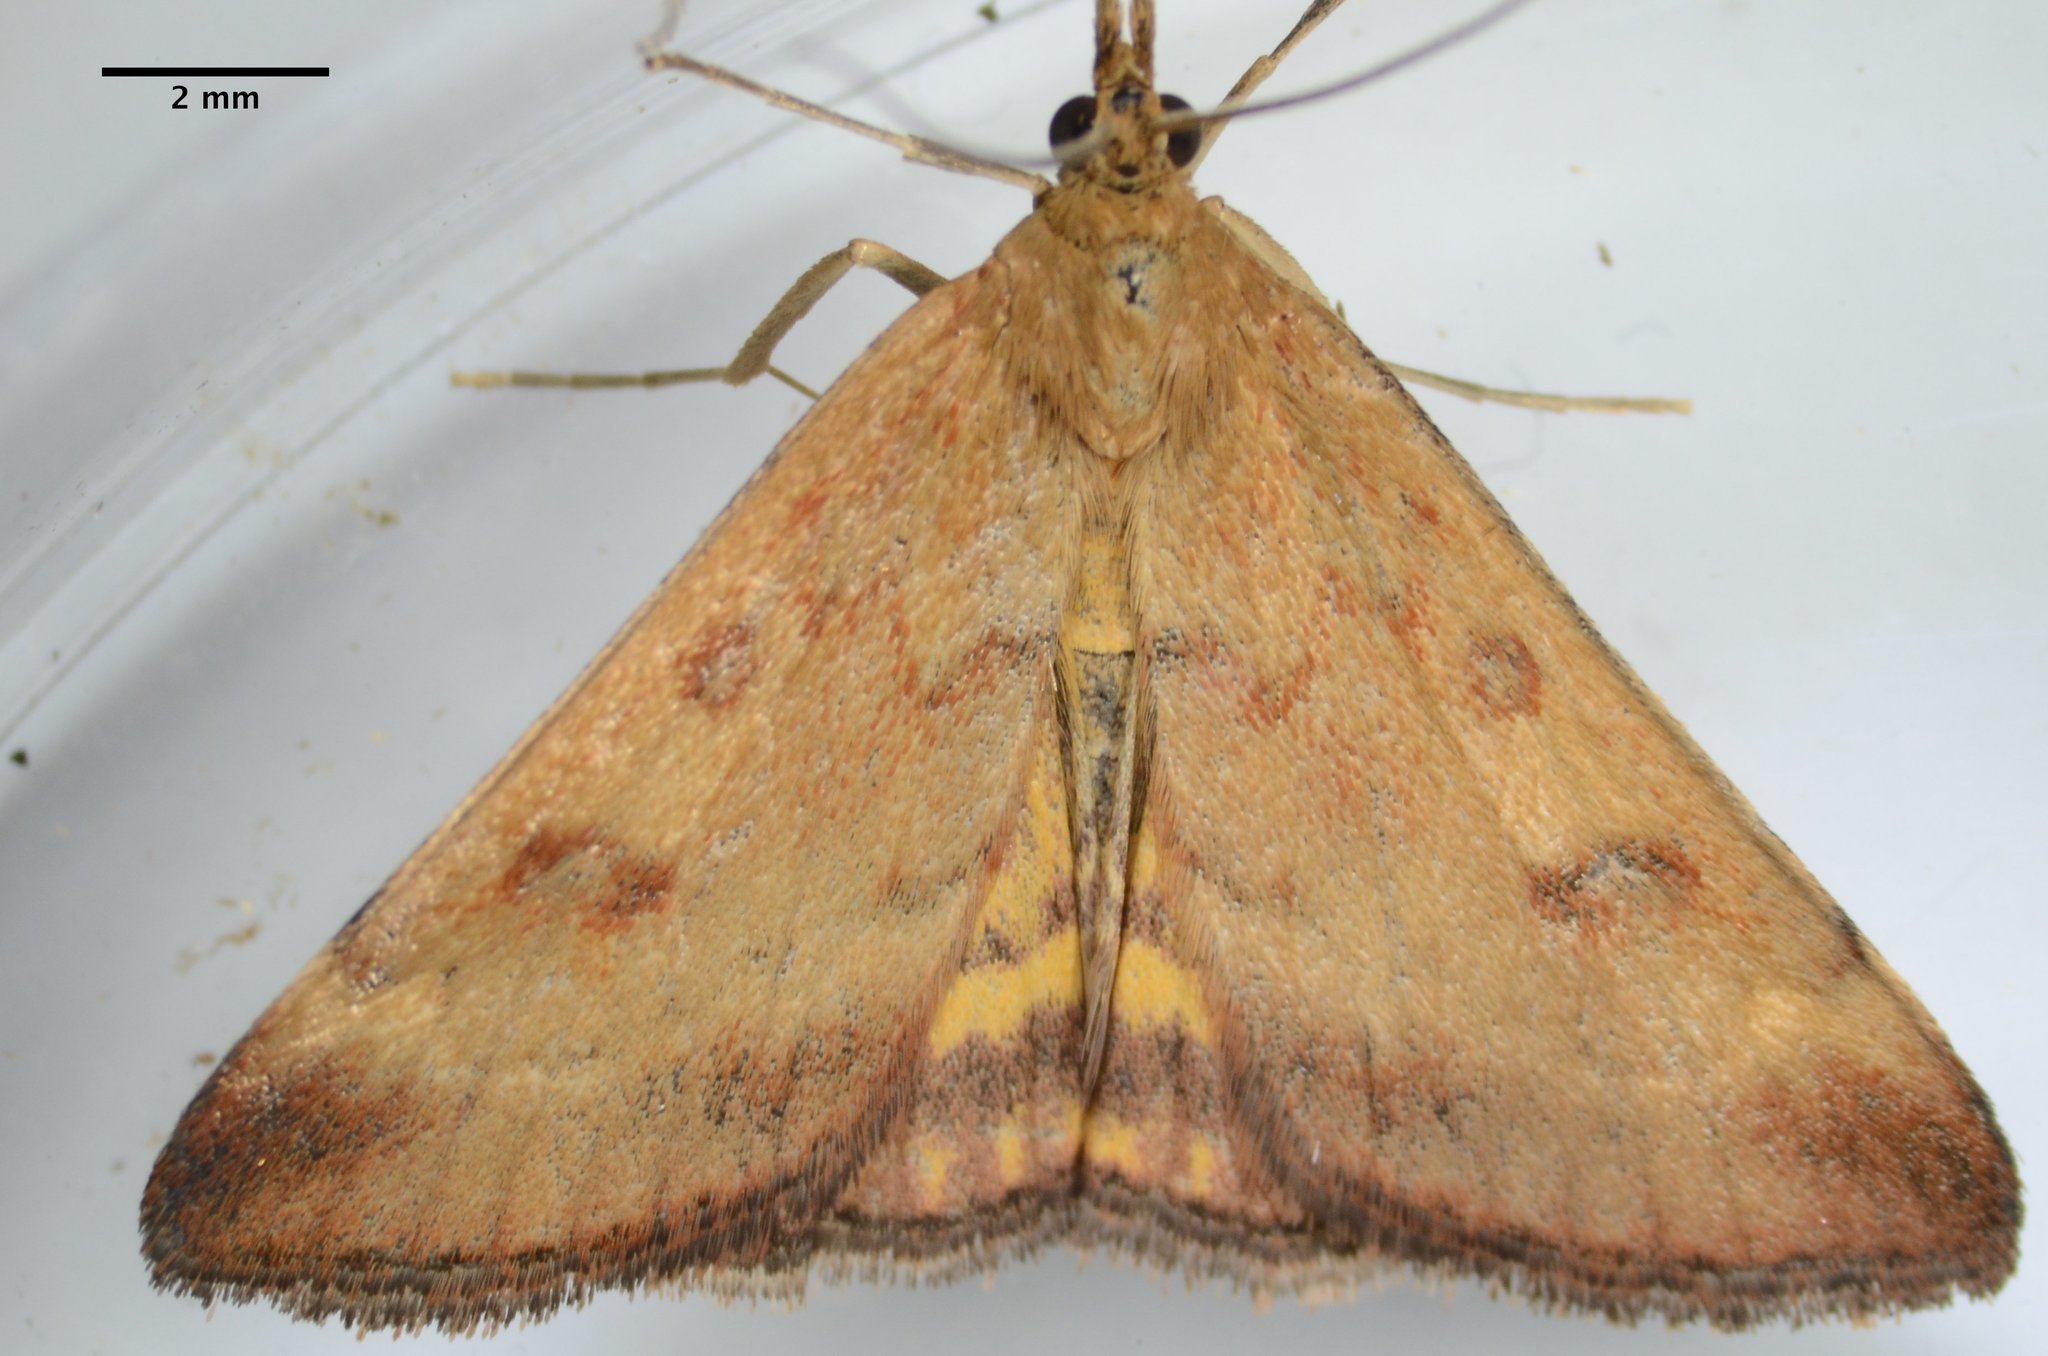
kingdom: Animalia
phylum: Arthropoda
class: Insecta
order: Lepidoptera
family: Crambidae
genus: Pyrausta
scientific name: Pyrausta subsequalis
